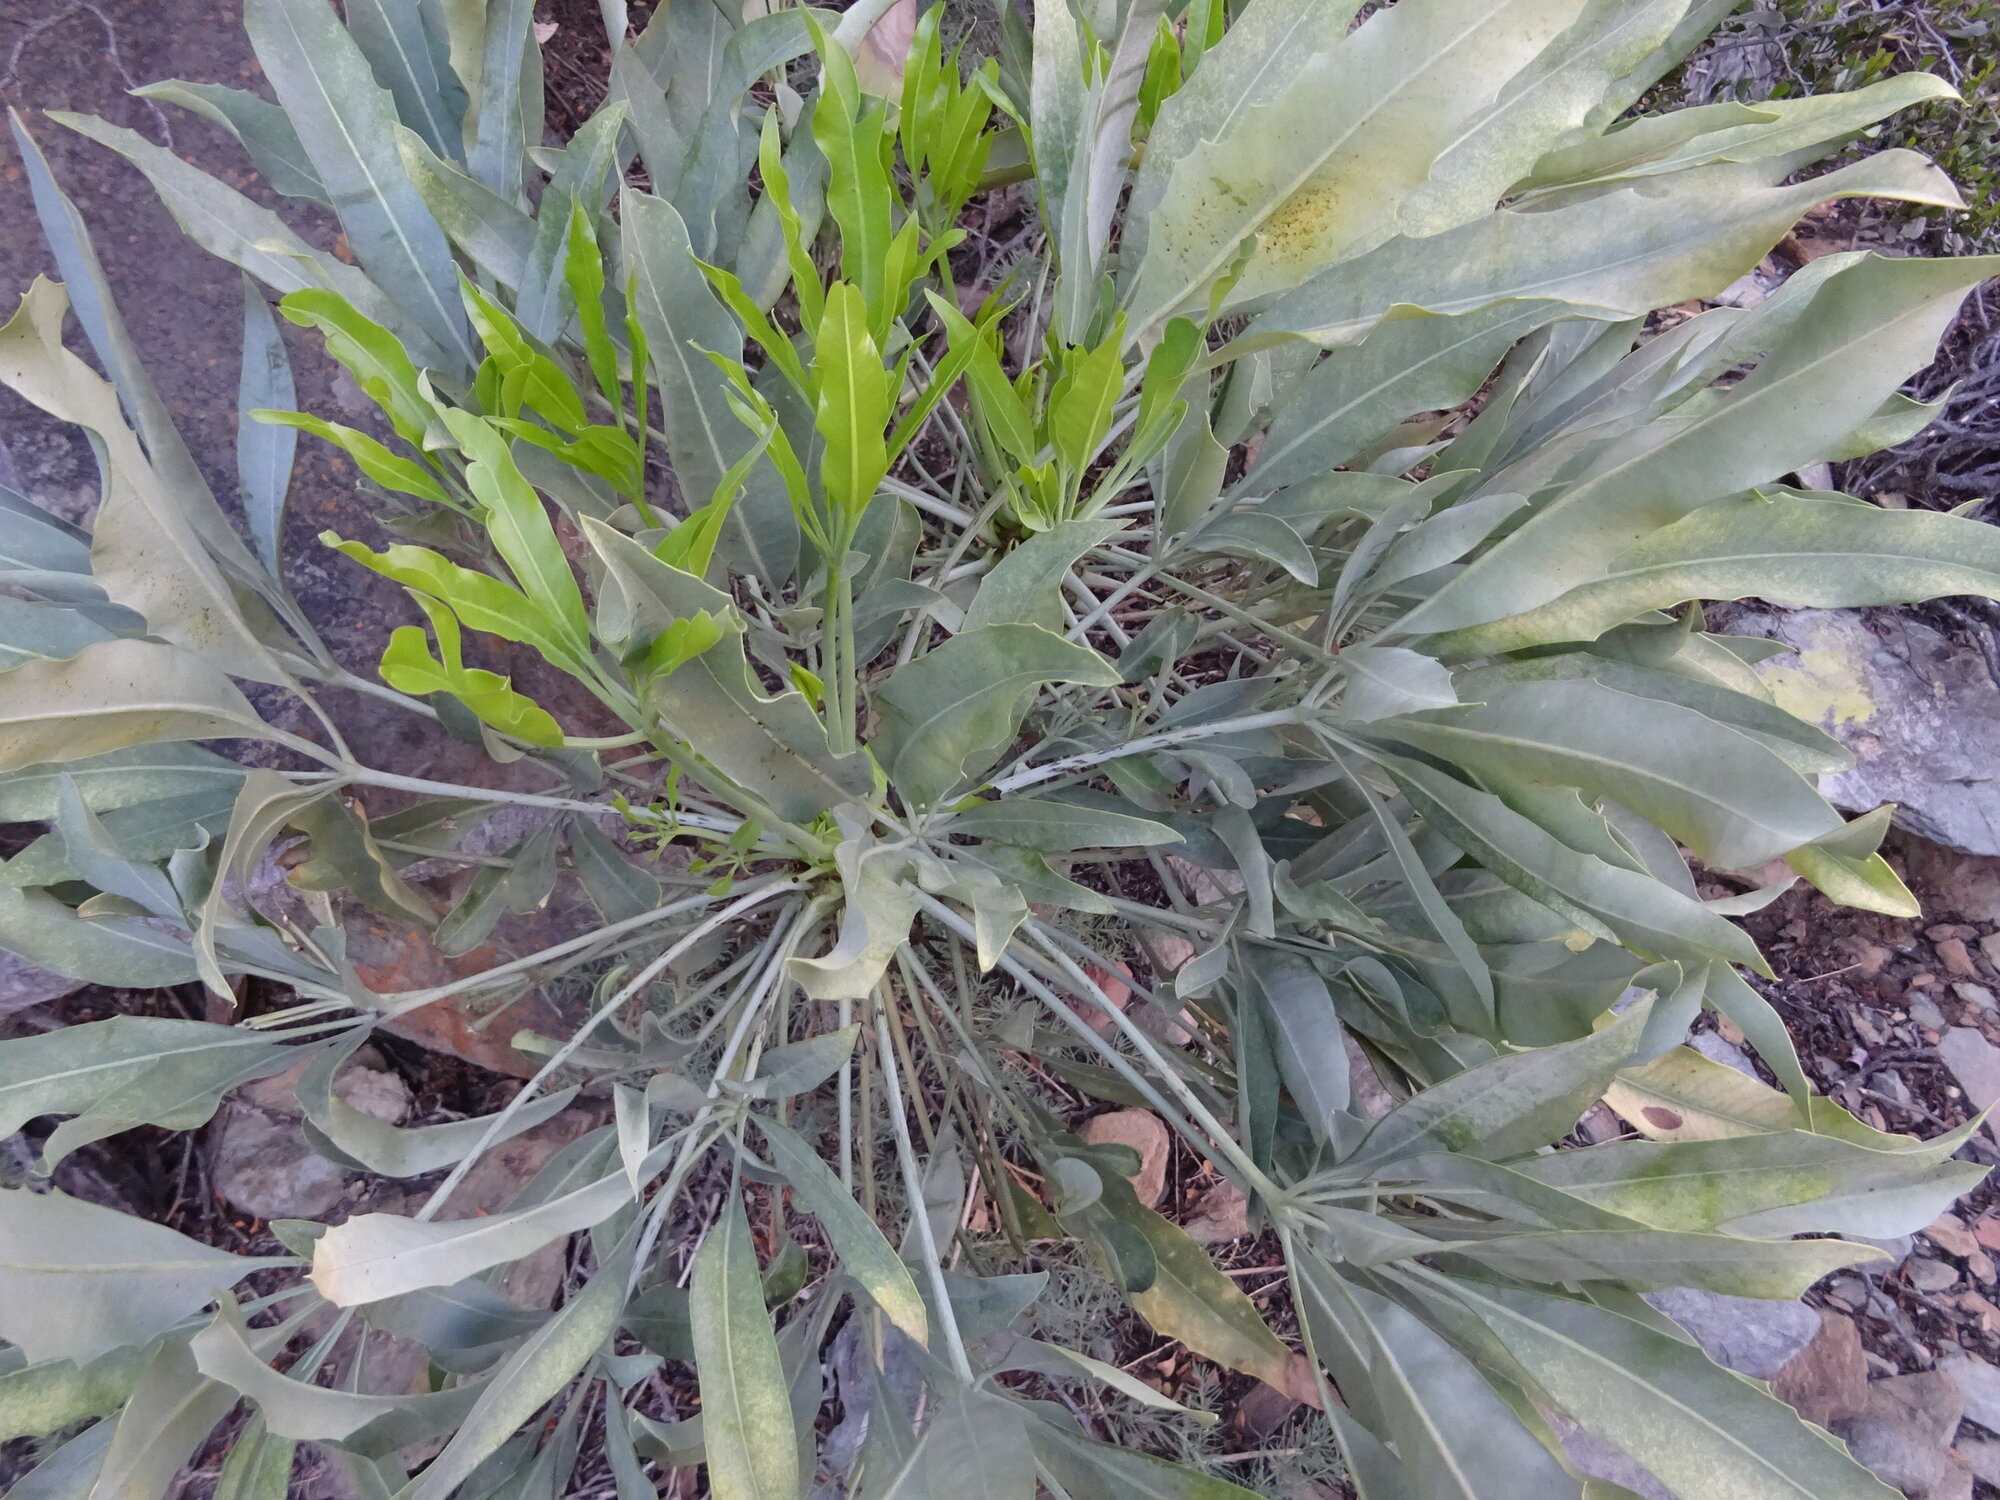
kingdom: Plantae
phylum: Tracheophyta
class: Magnoliopsida
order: Apiales
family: Araliaceae
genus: Cussonia
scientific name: Cussonia paniculata
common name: Cabbagetree
